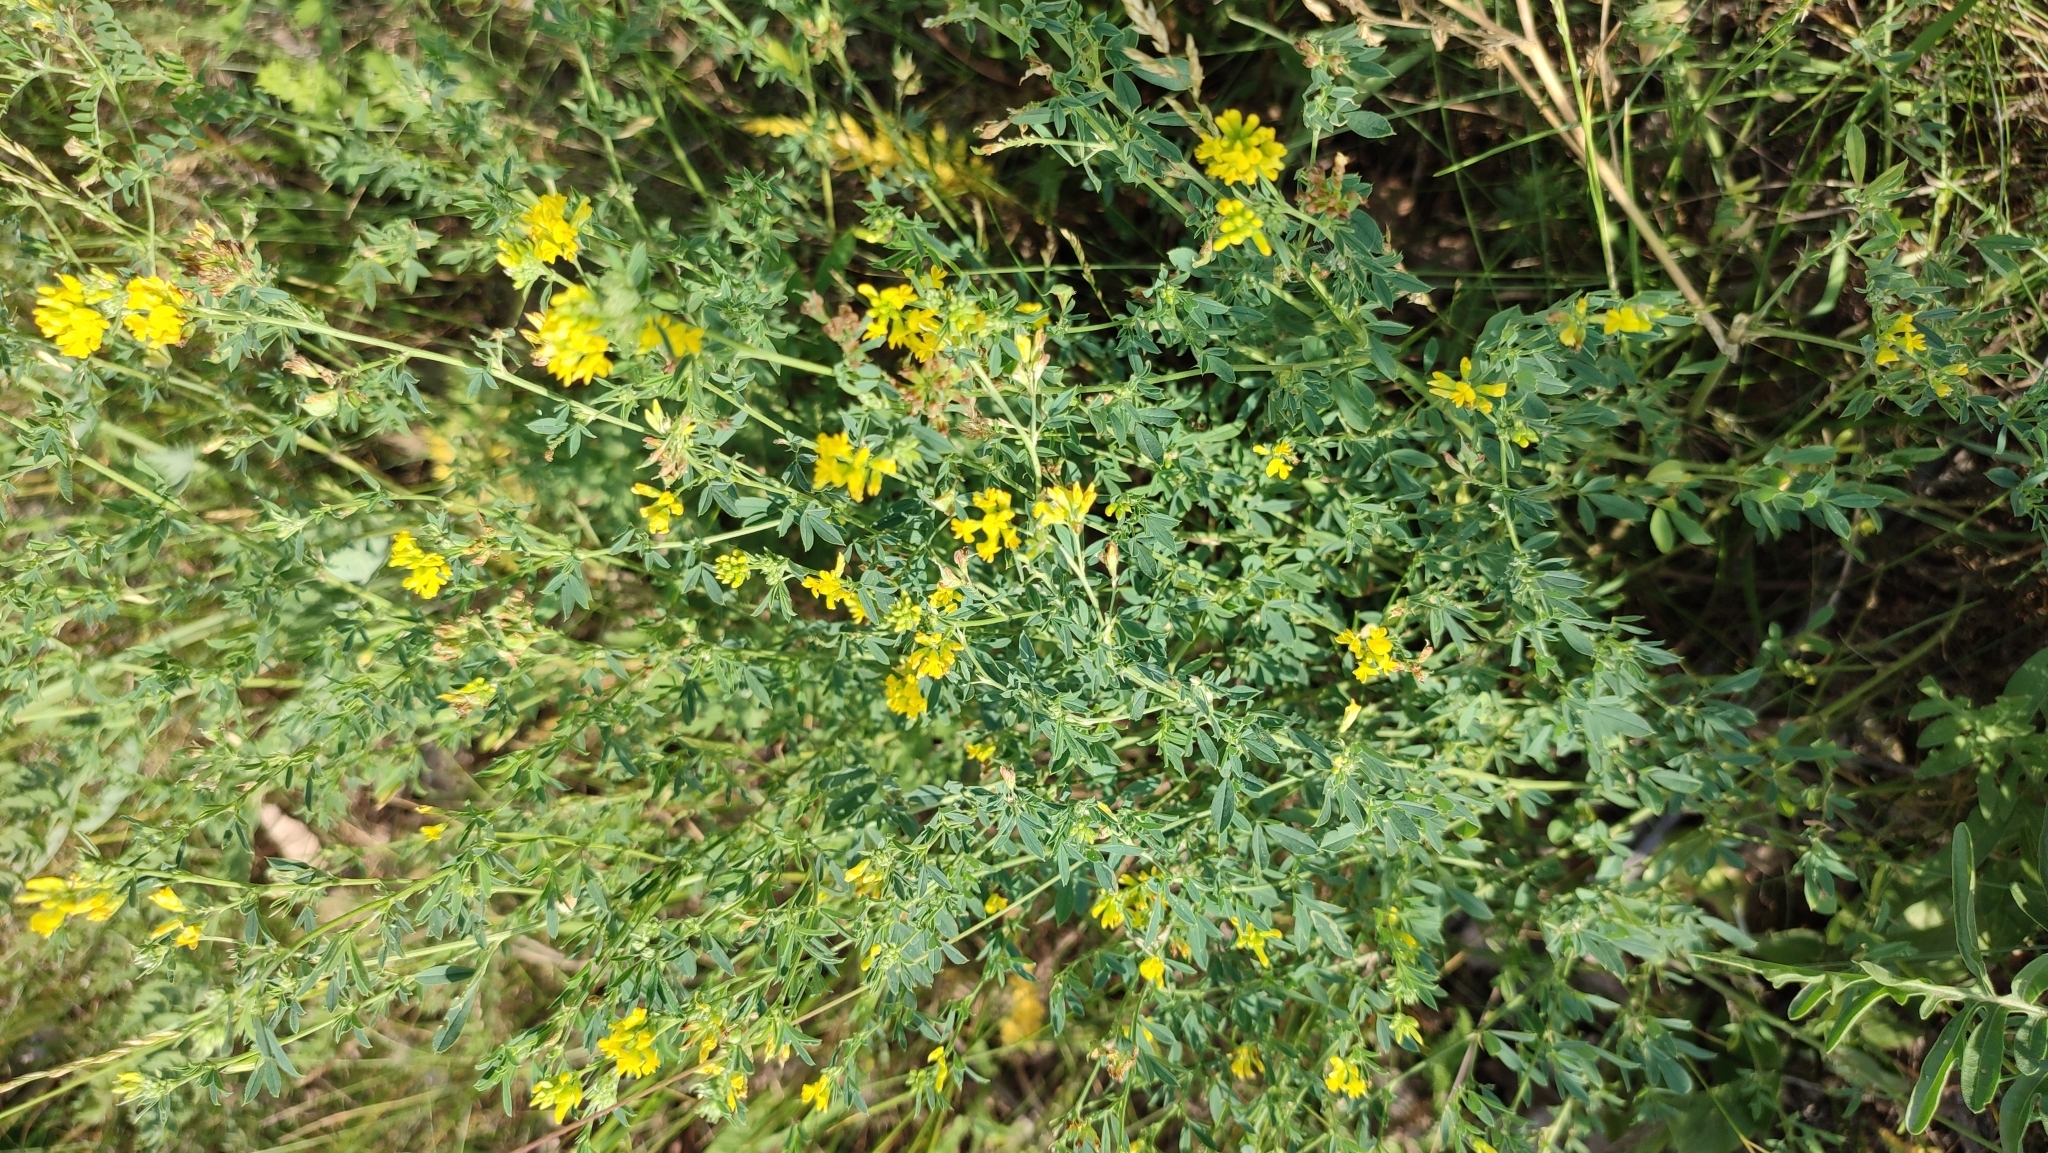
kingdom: Plantae
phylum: Tracheophyta
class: Magnoliopsida
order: Fabales
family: Fabaceae
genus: Medicago
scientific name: Medicago falcata
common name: Sickle medick
